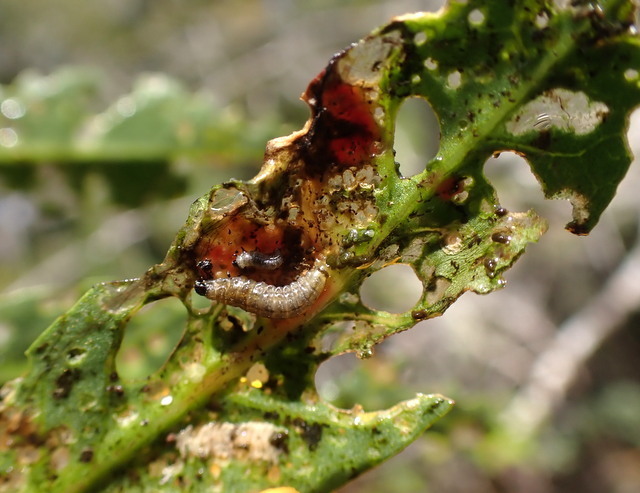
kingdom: Animalia
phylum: Arthropoda
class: Insecta
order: Coleoptera
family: Chrysomelidae
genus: Agasicles
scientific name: Agasicles hygrophila
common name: Alligatorweed flea beetle
